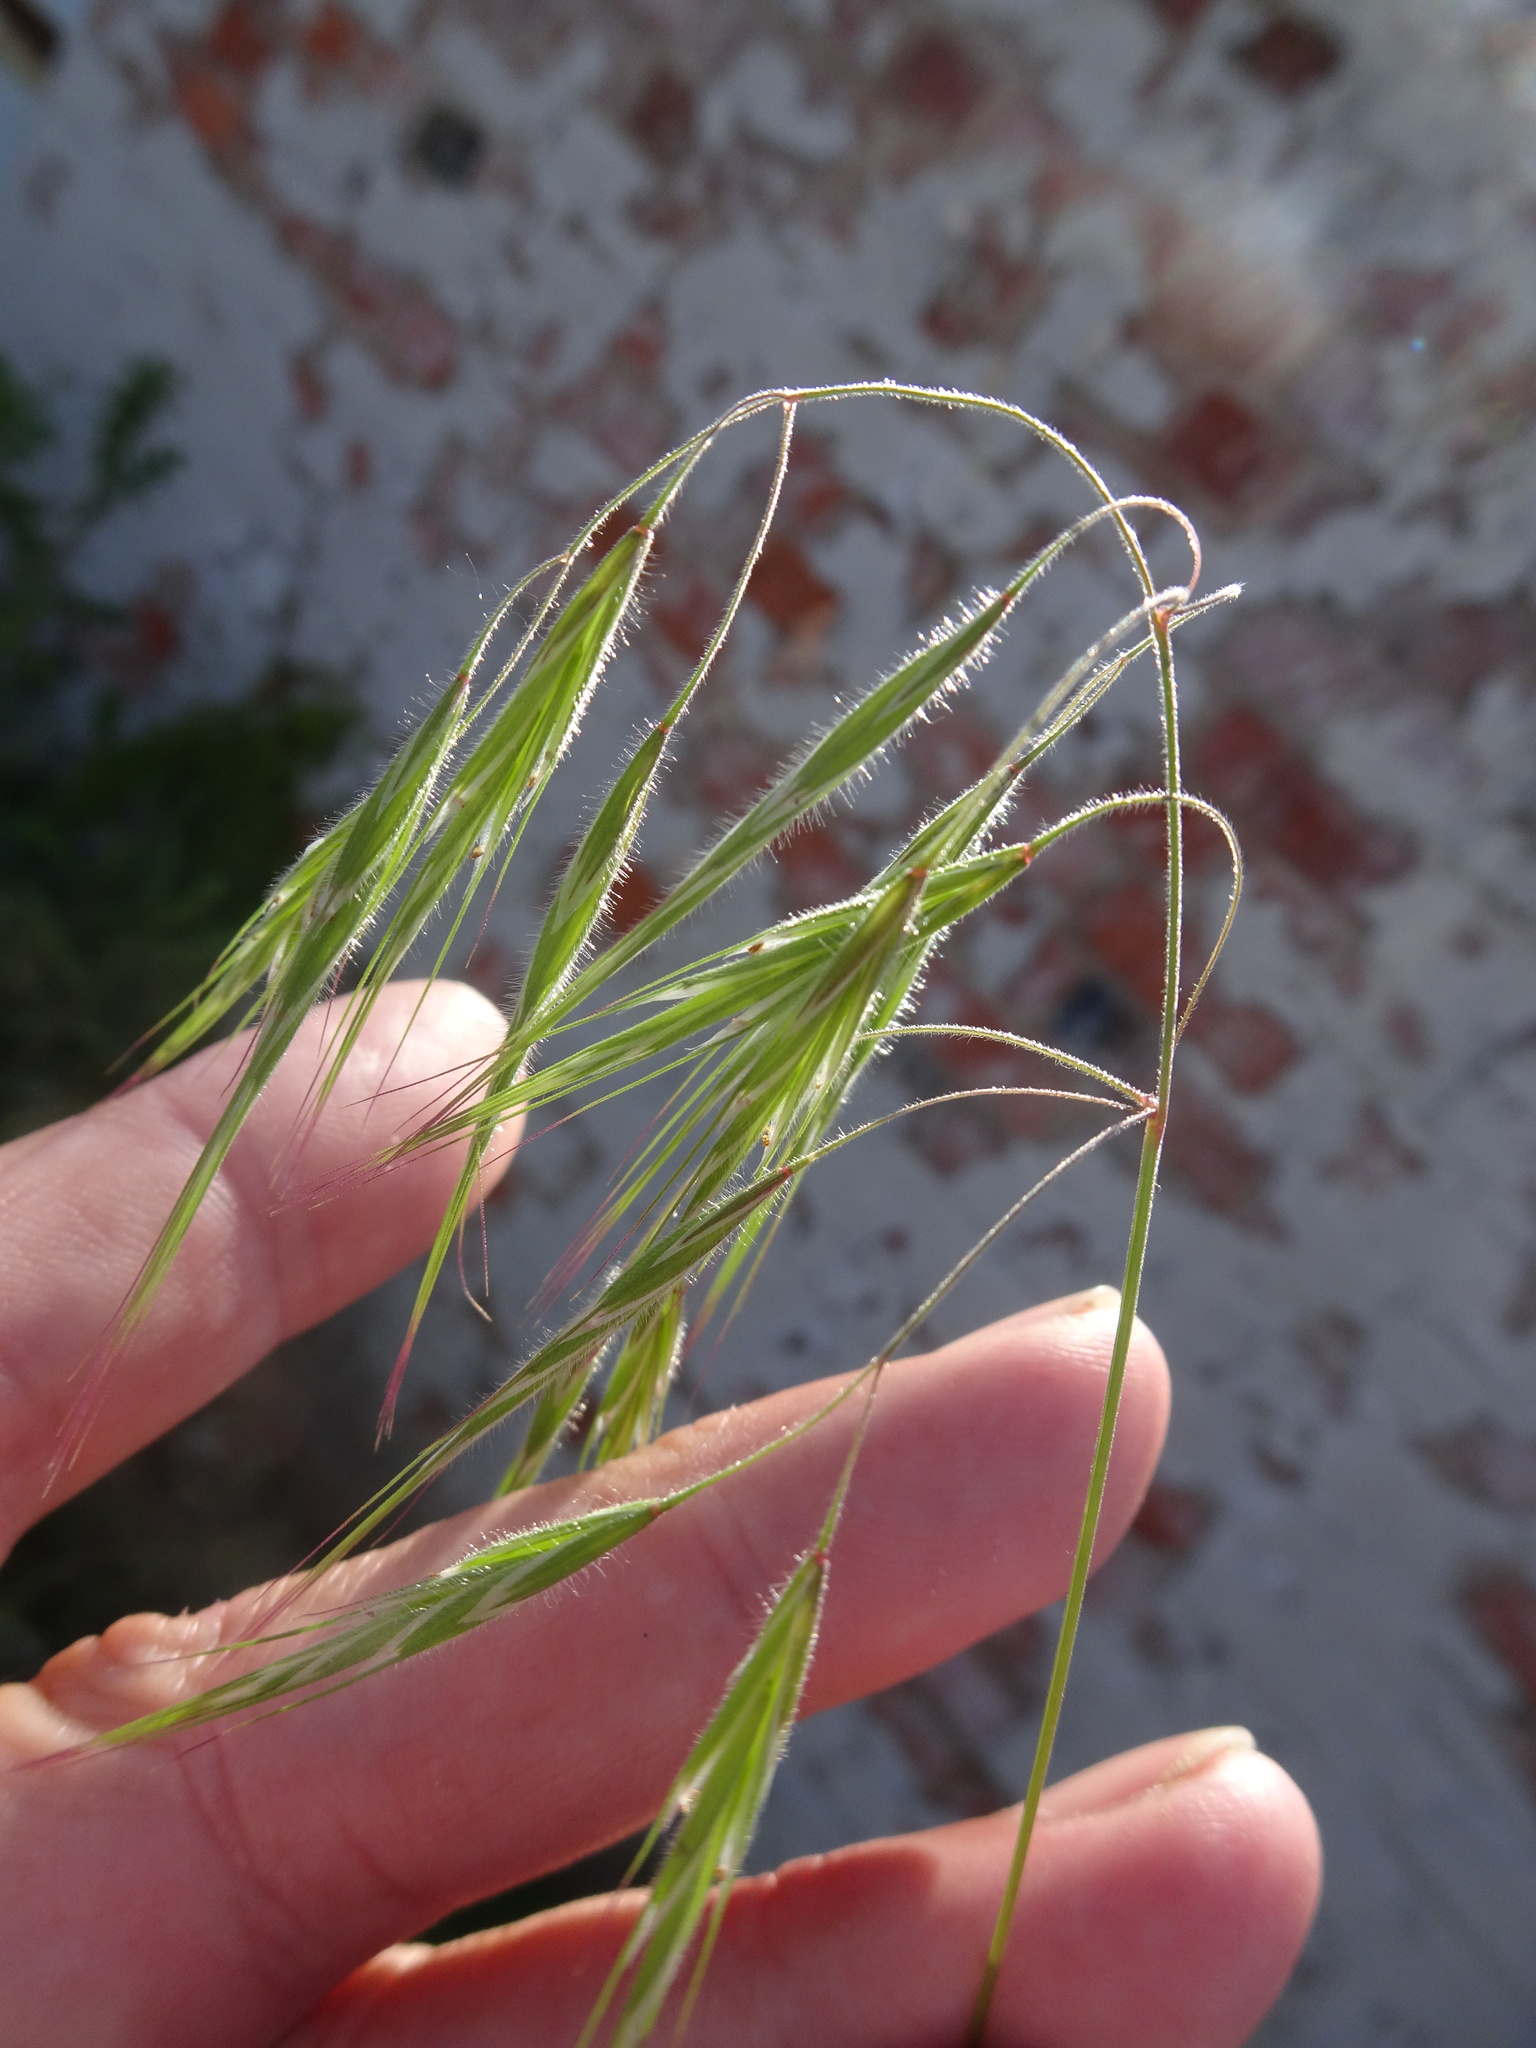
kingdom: Plantae
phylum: Tracheophyta
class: Liliopsida
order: Poales
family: Poaceae
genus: Bromus
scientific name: Bromus tectorum
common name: Cheatgrass
